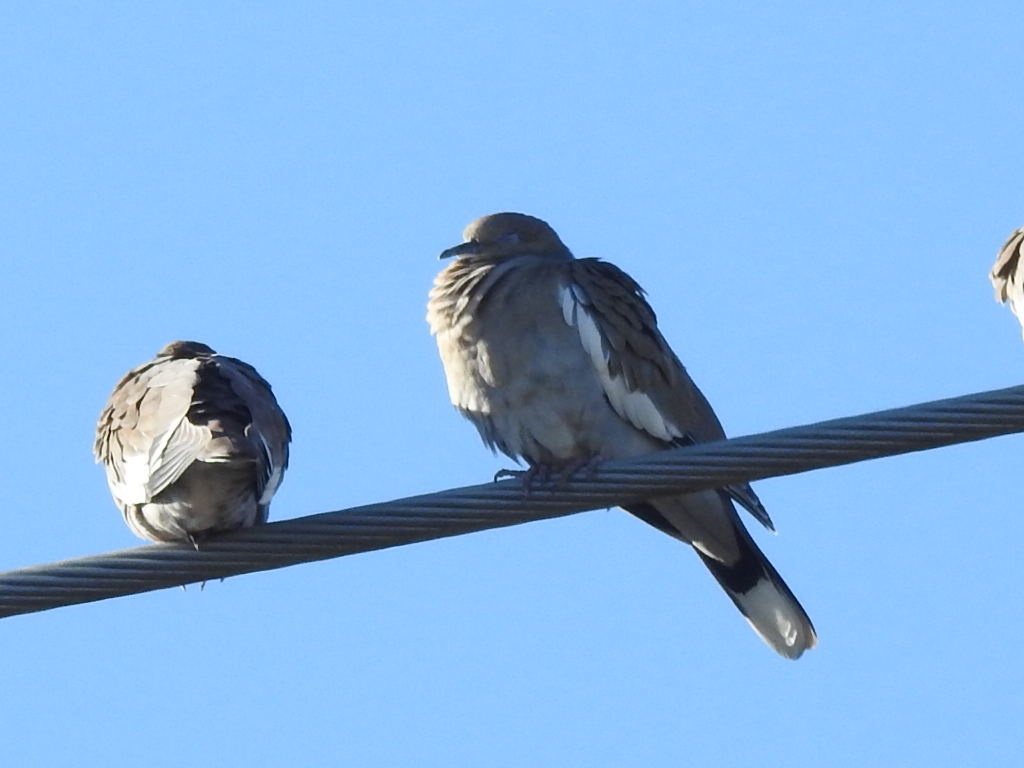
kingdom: Animalia
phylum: Chordata
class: Aves
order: Columbiformes
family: Columbidae
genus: Zenaida
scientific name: Zenaida asiatica
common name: White-winged dove
